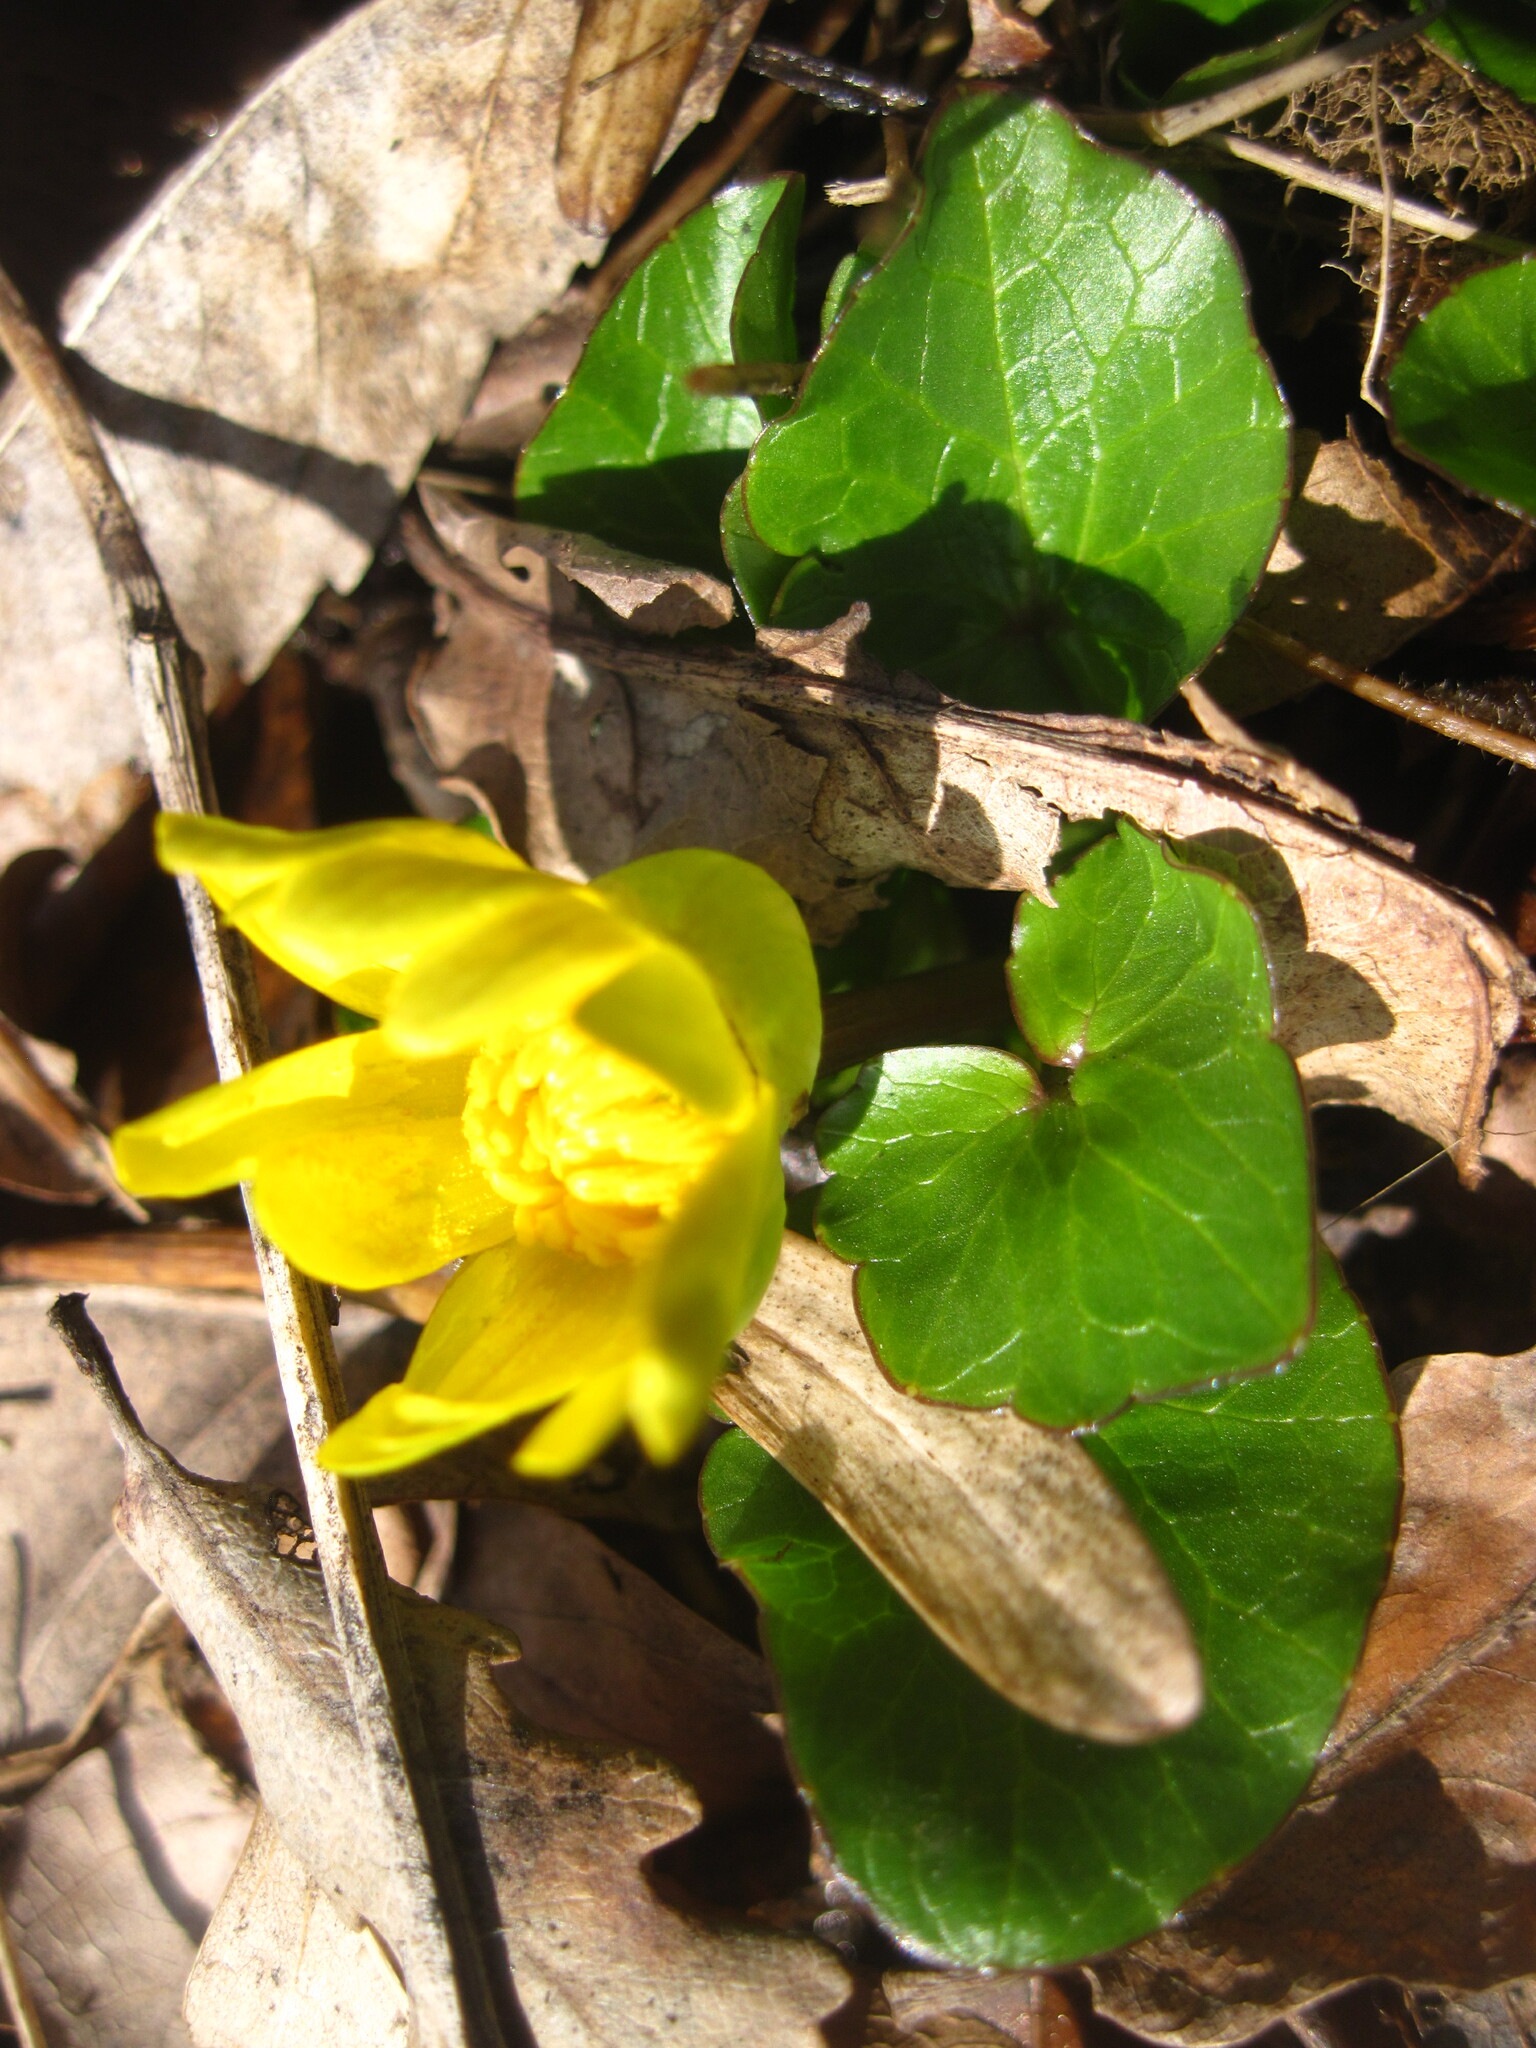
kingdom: Plantae
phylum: Tracheophyta
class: Magnoliopsida
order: Ranunculales
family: Ranunculaceae
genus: Ficaria
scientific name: Ficaria verna
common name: Lesser celandine
